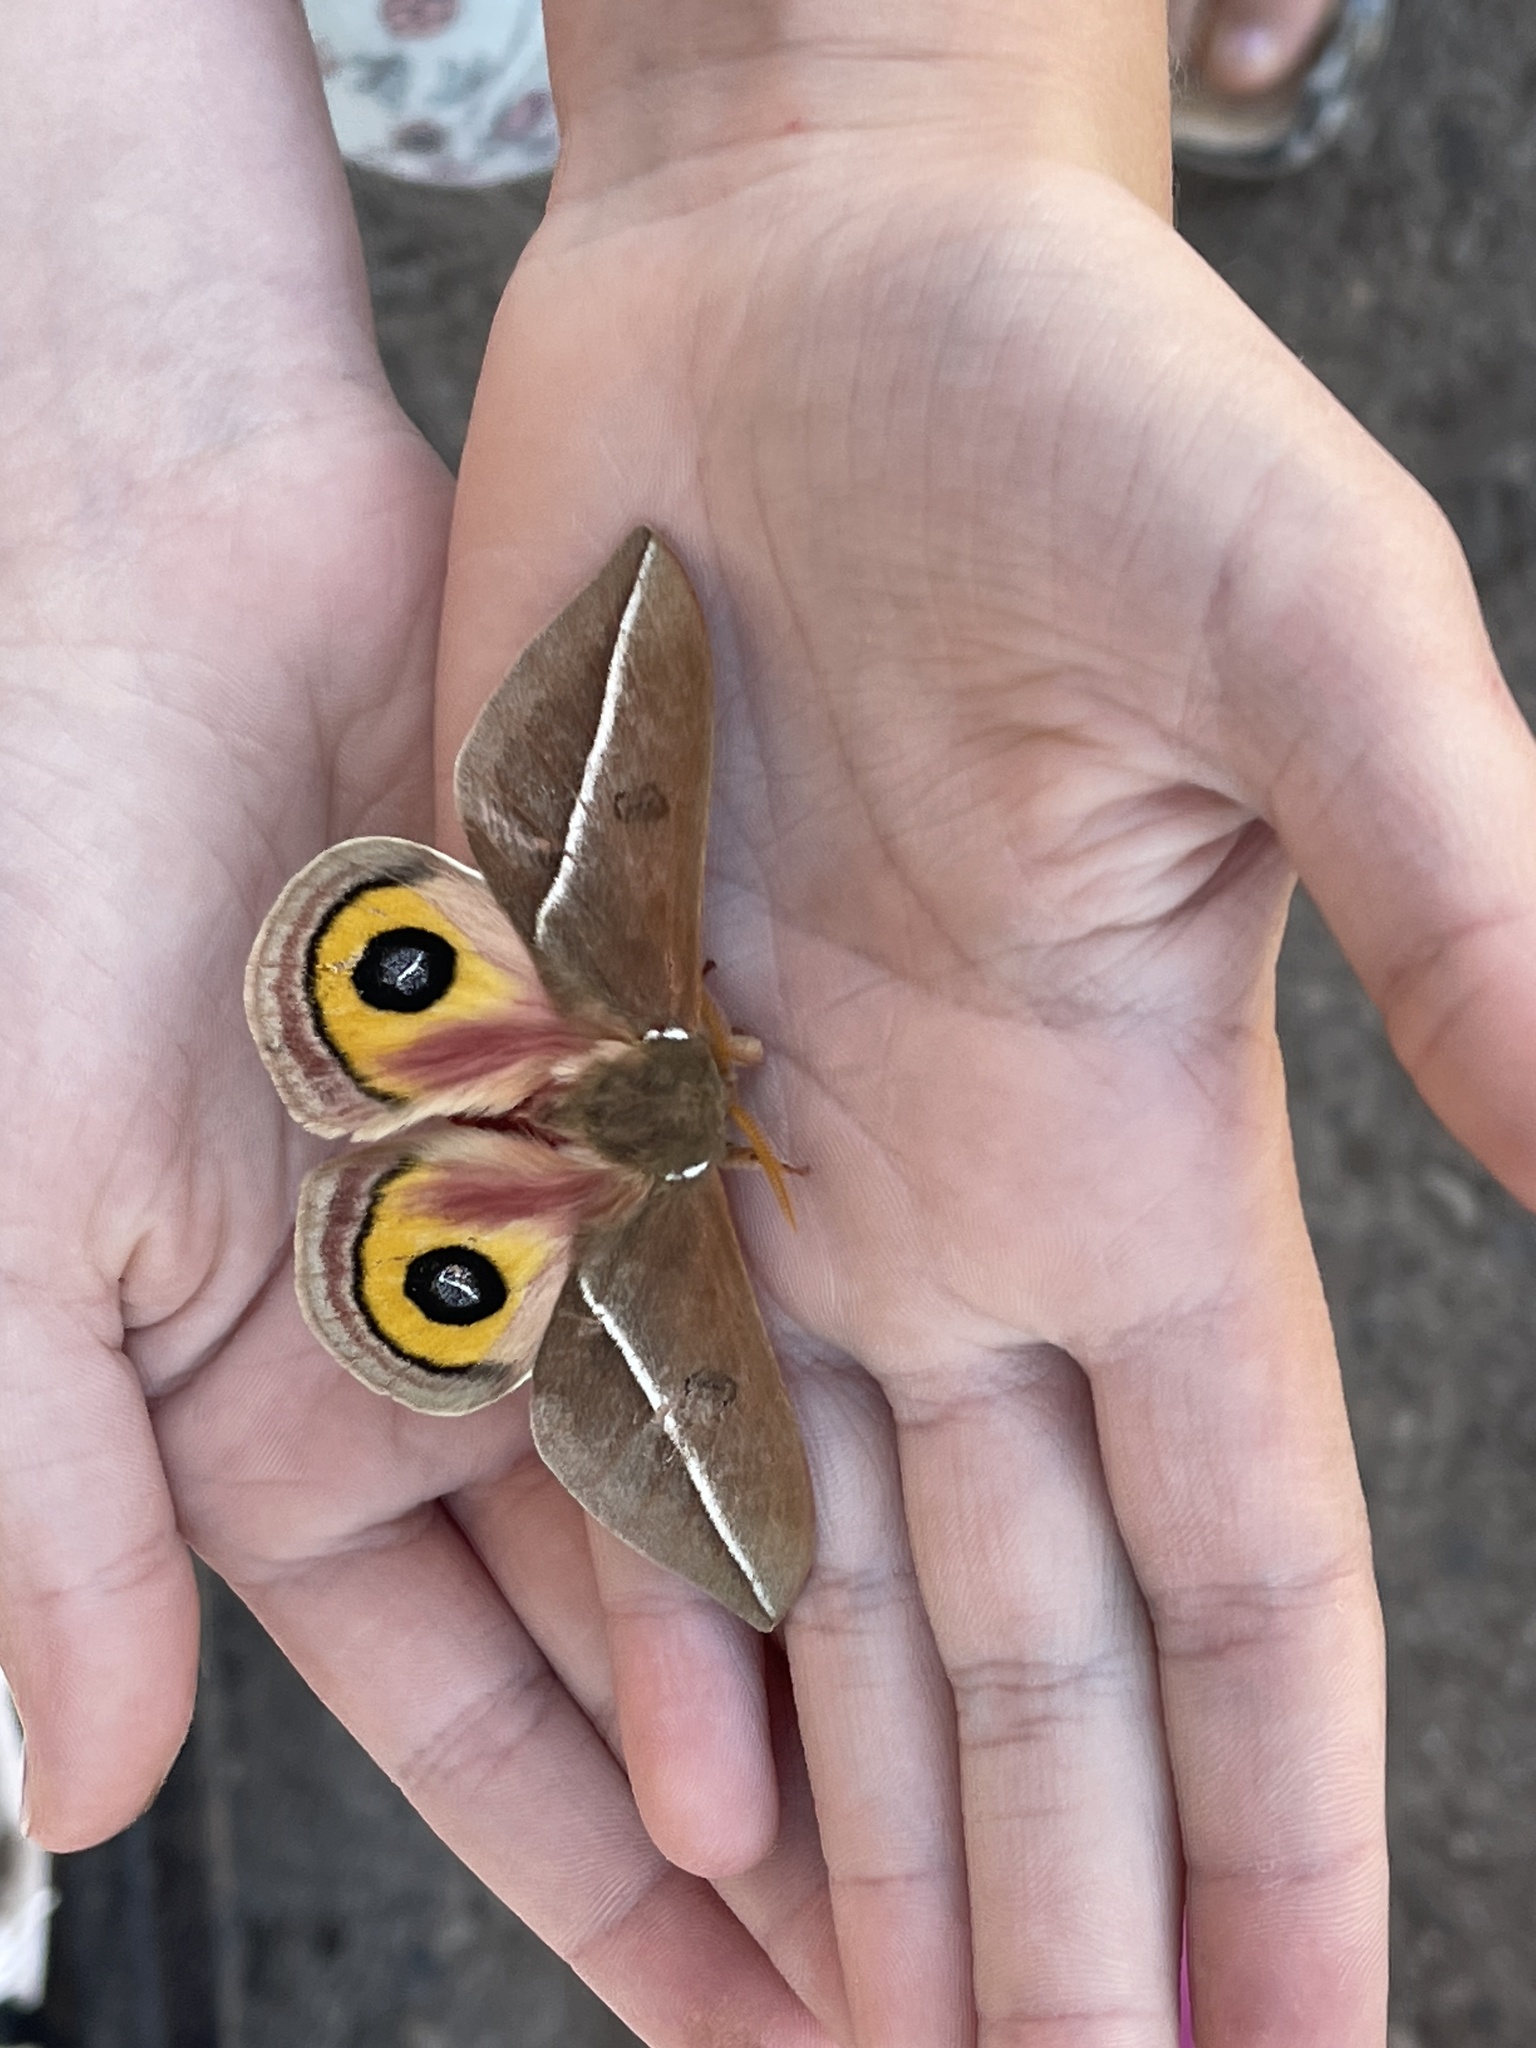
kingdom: Animalia
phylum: Arthropoda
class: Insecta
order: Lepidoptera
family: Saturniidae
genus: Automeris
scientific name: Automeris zephyria
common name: Zephyr eyed silkmoth
